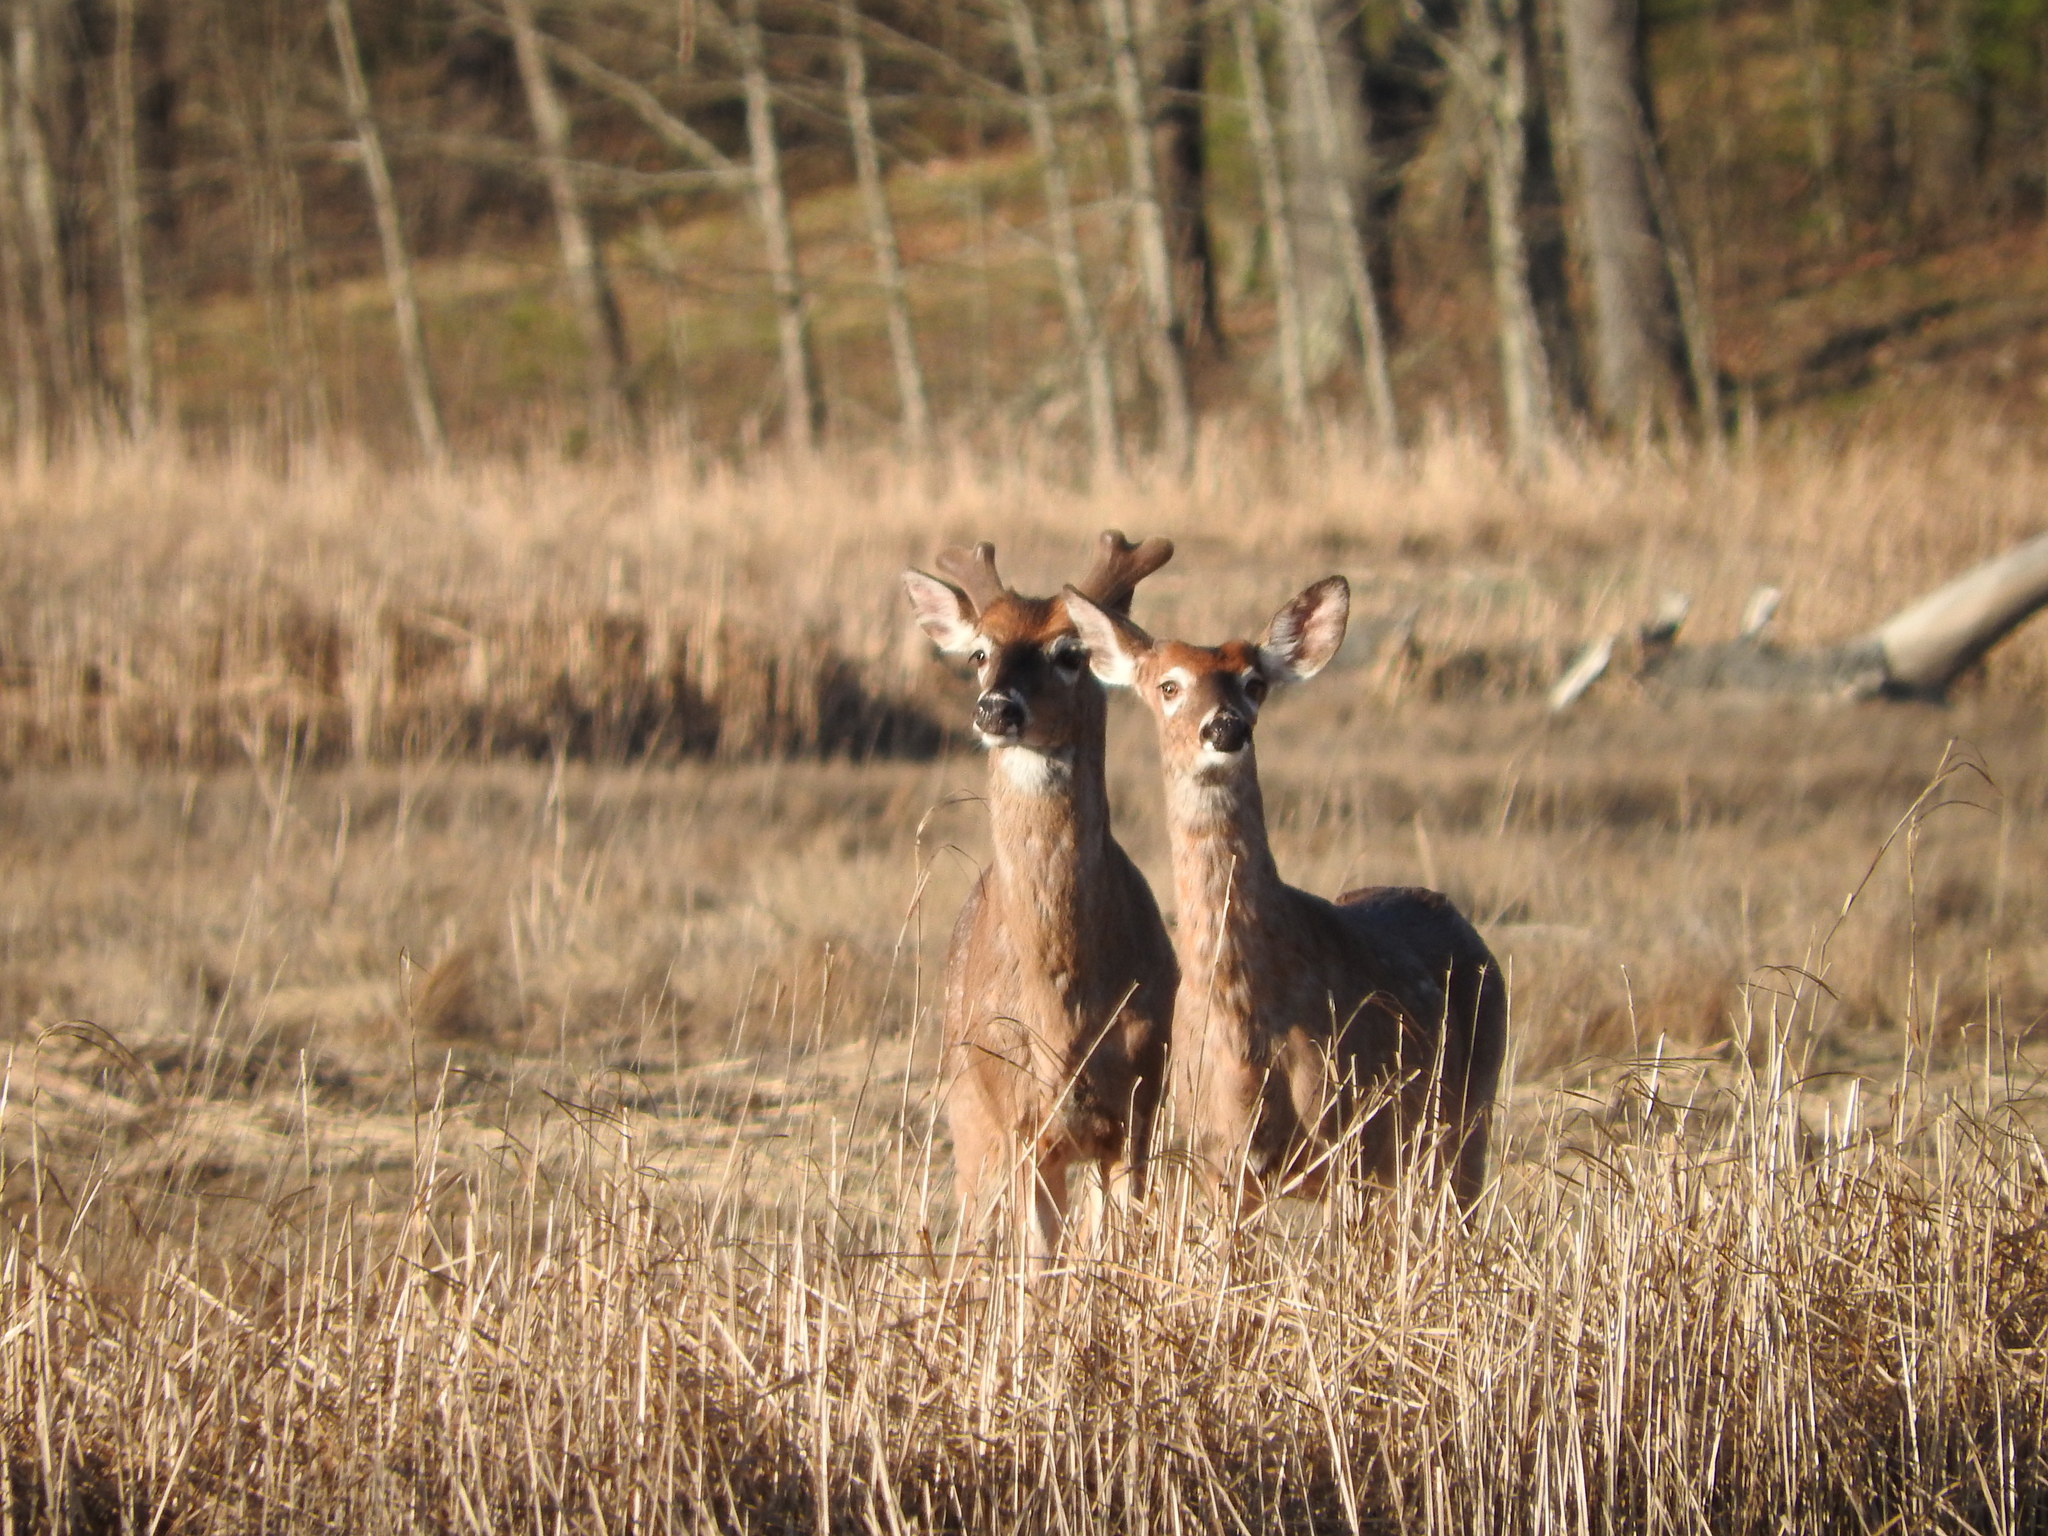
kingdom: Animalia
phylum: Chordata
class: Mammalia
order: Artiodactyla
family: Cervidae
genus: Odocoileus
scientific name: Odocoileus virginianus
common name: White-tailed deer
